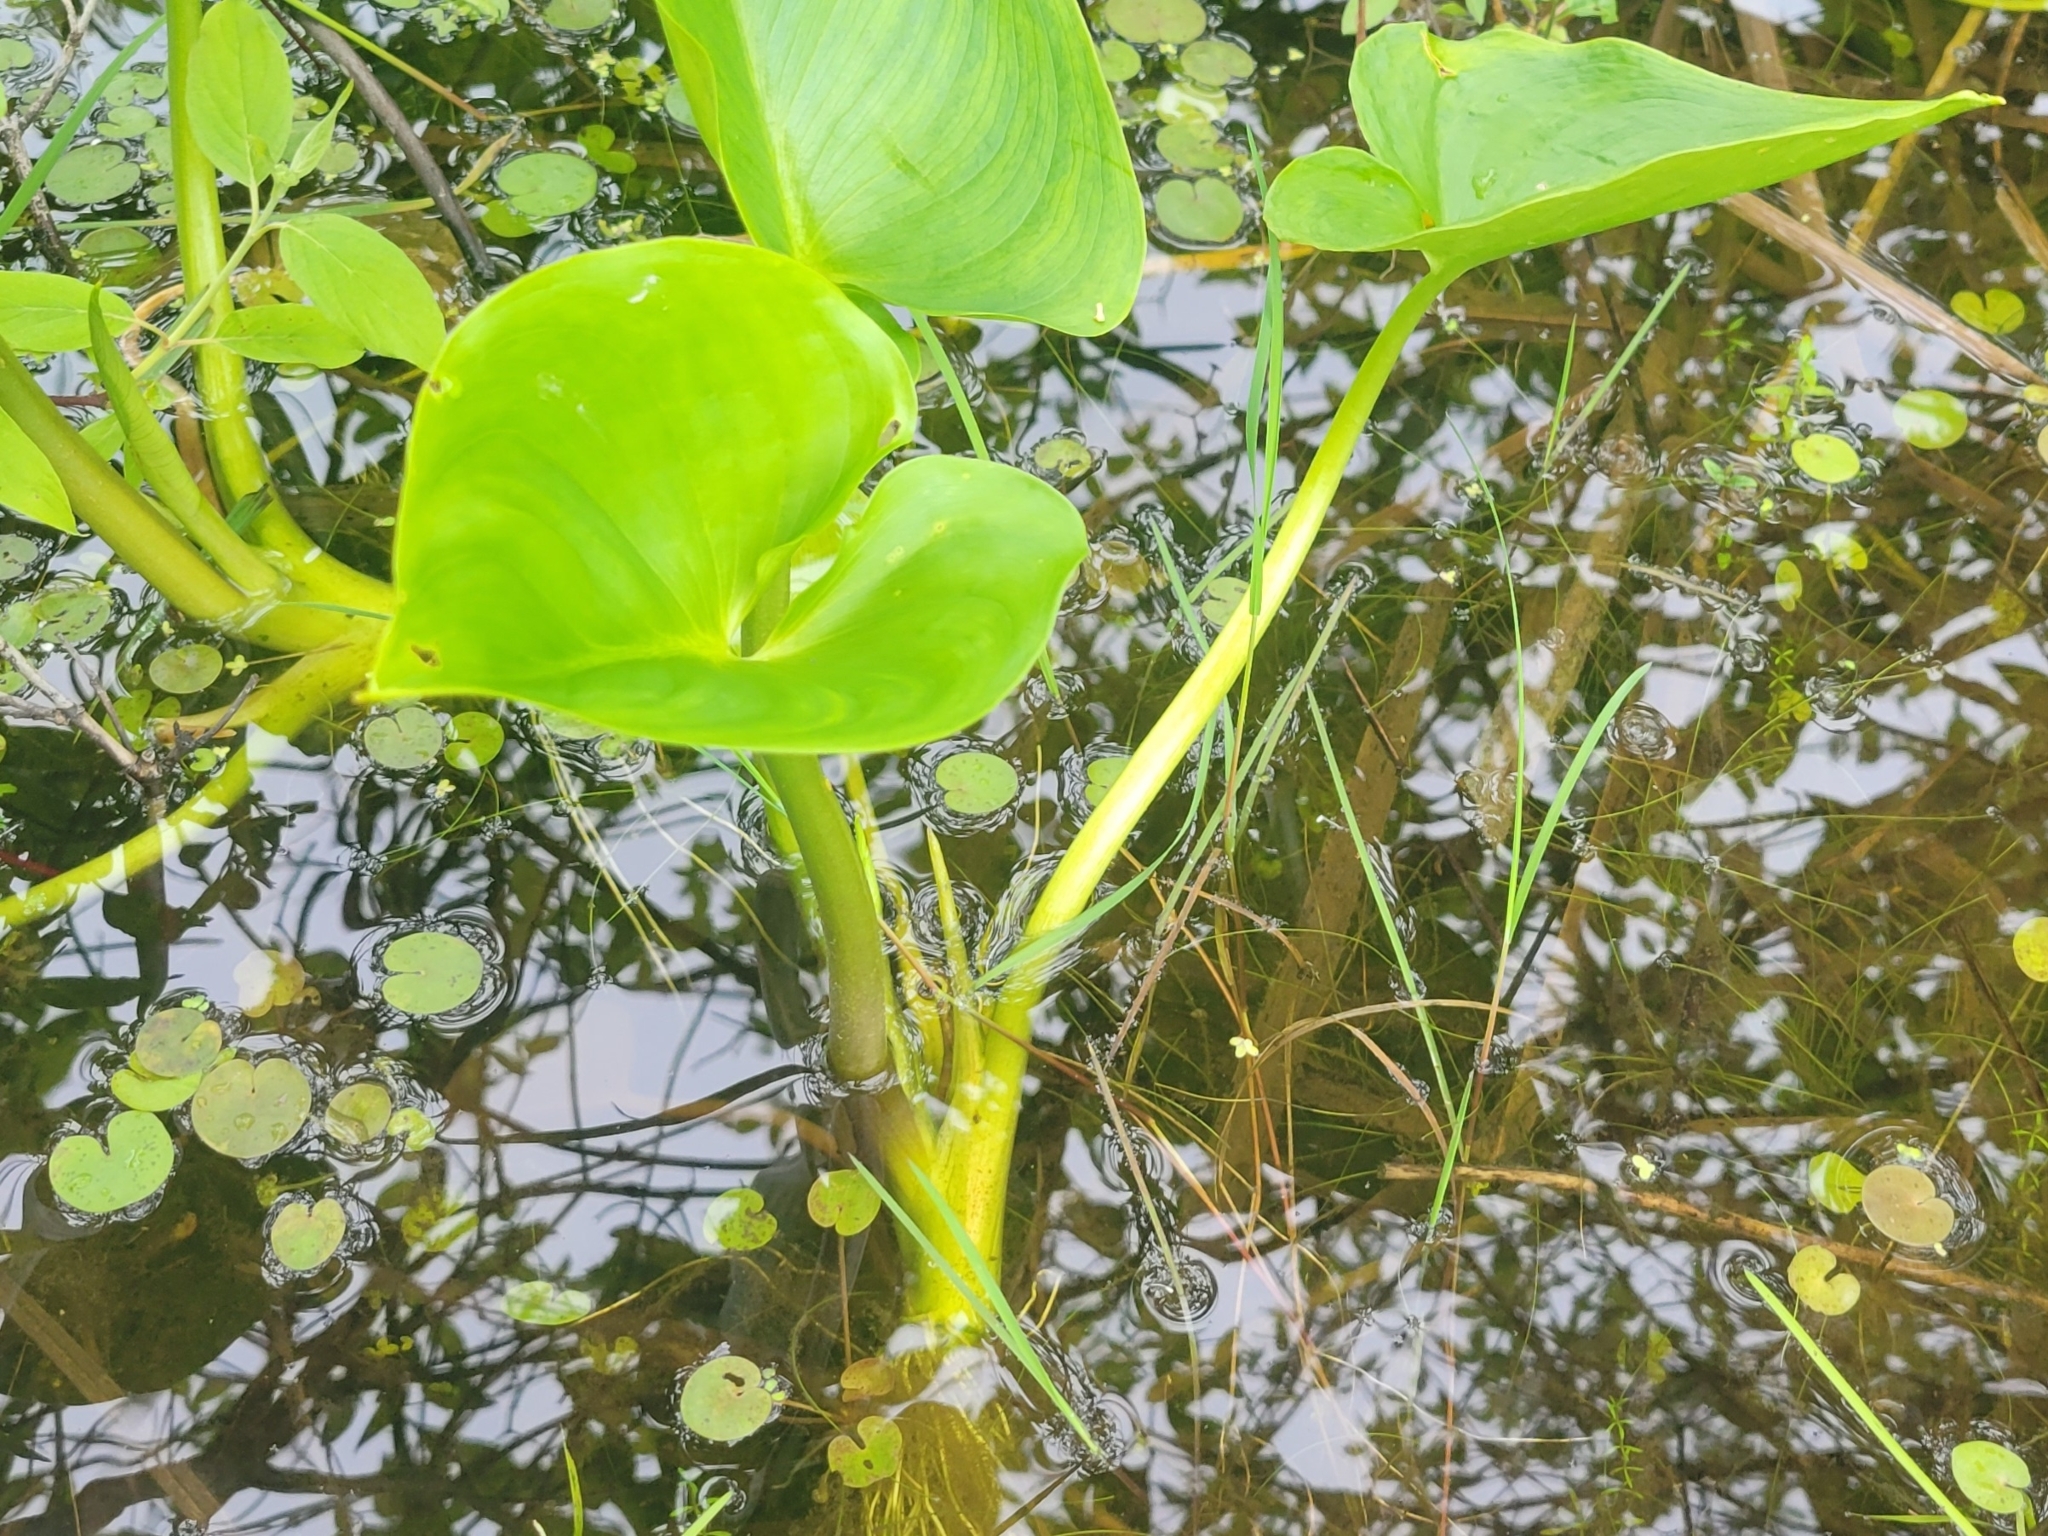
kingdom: Plantae
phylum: Tracheophyta
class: Liliopsida
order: Alismatales
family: Araceae
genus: Calla
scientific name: Calla palustris
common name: Bog arum
